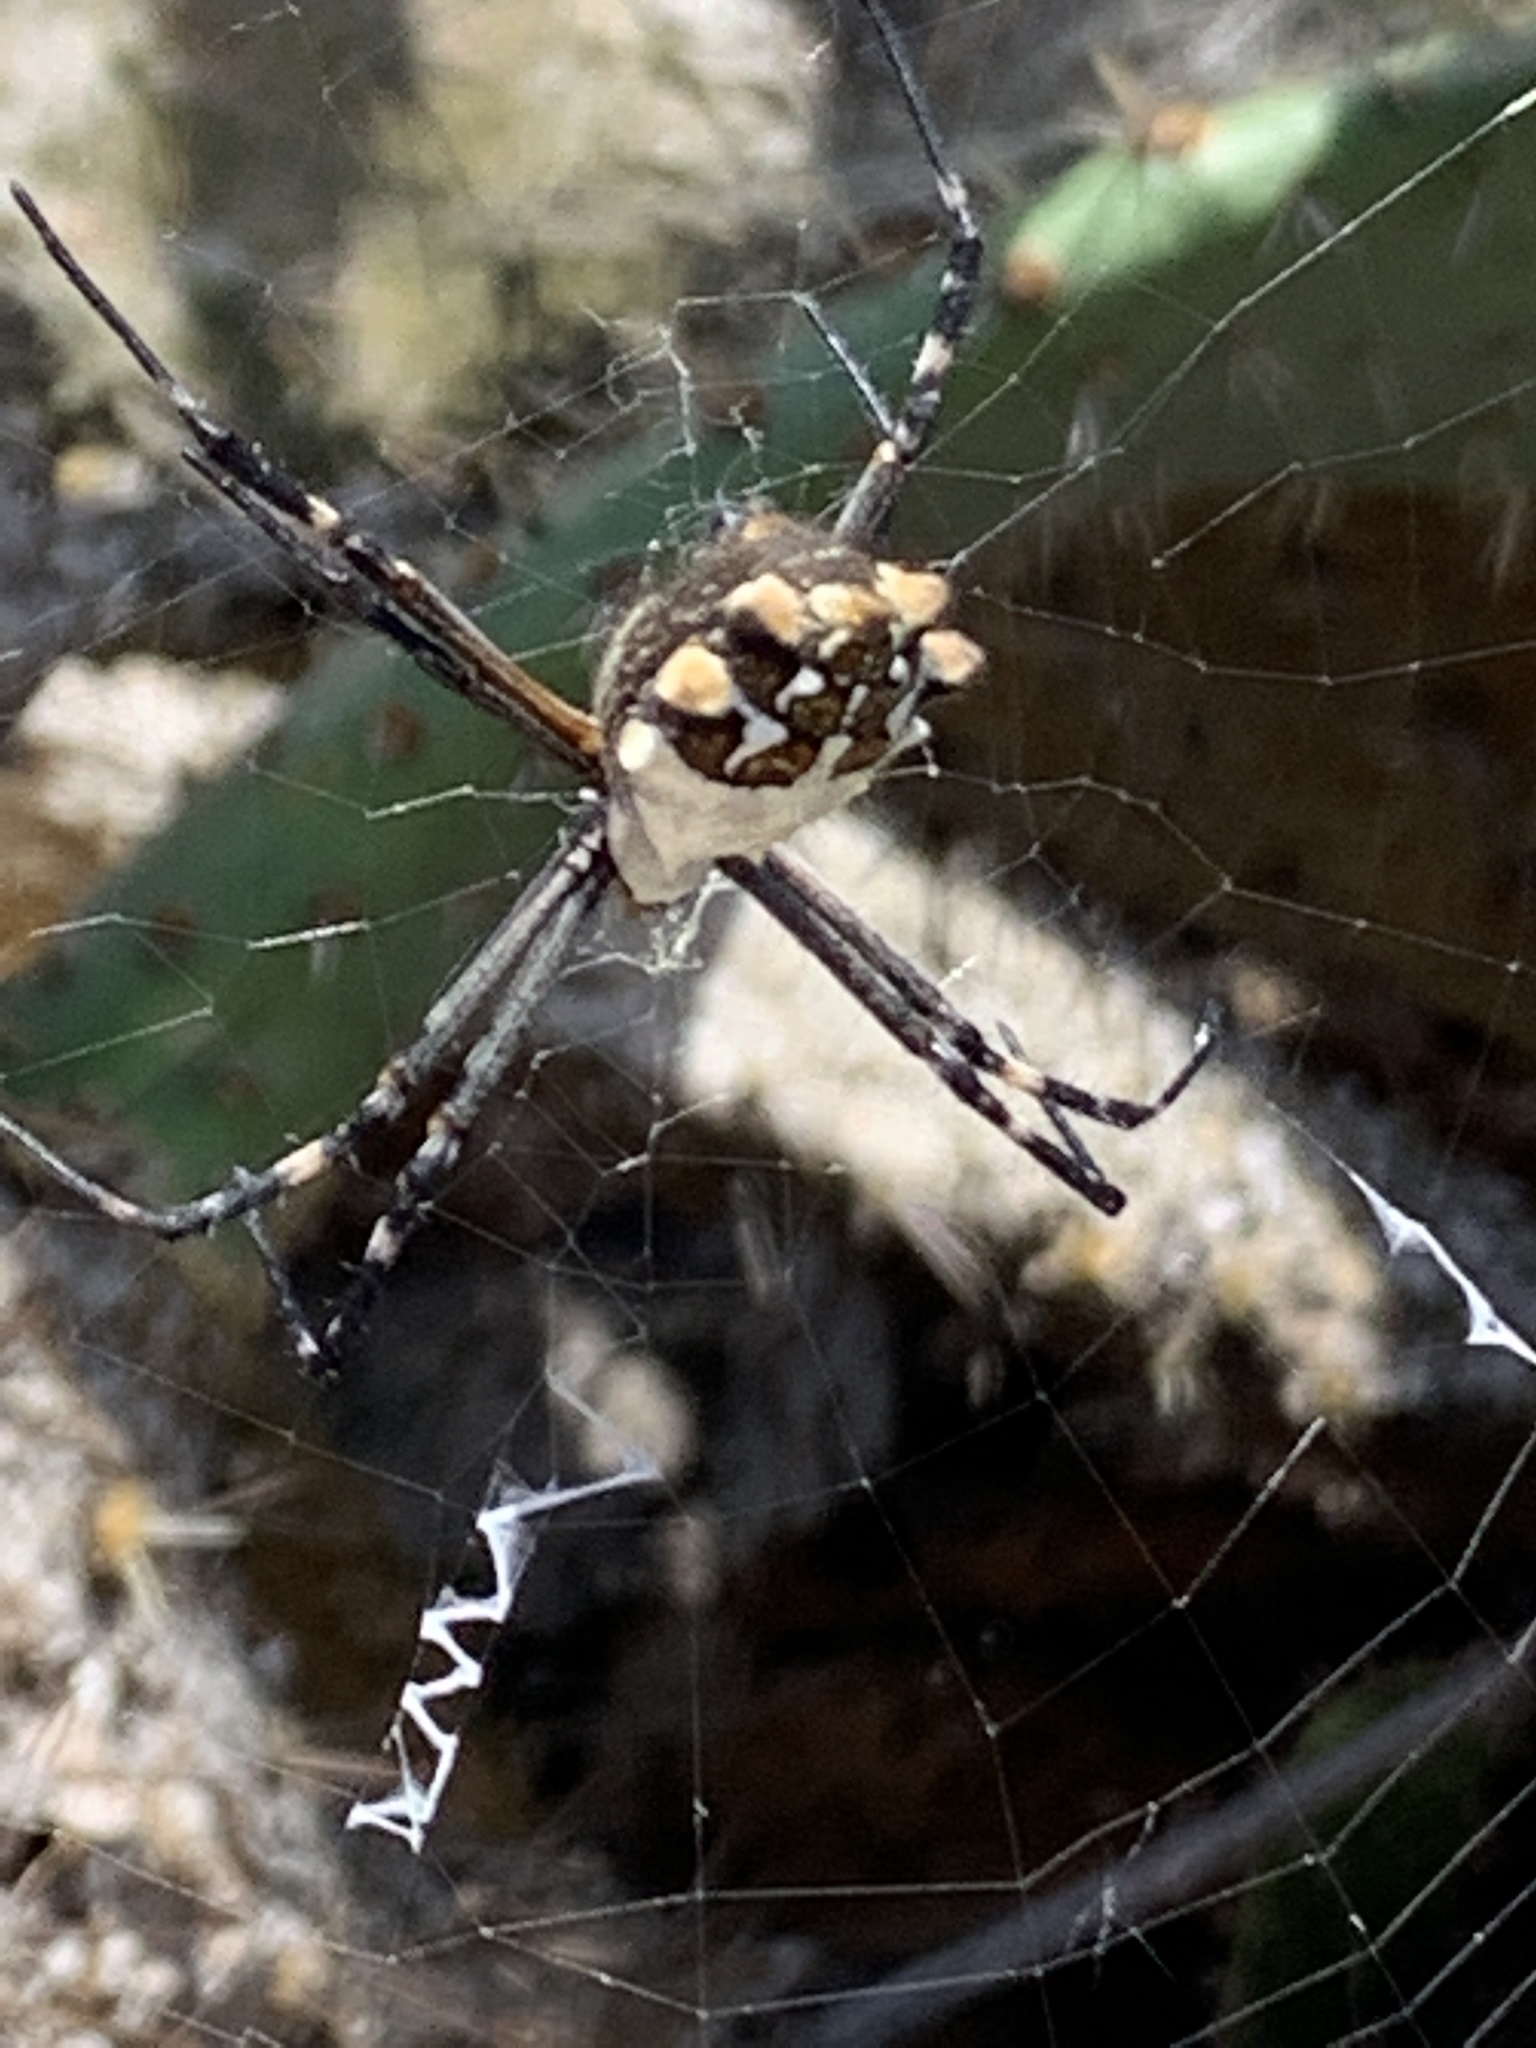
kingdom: Animalia
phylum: Arthropoda
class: Arachnida
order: Araneae
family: Araneidae
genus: Argiope
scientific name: Argiope argentata
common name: Orb weavers
